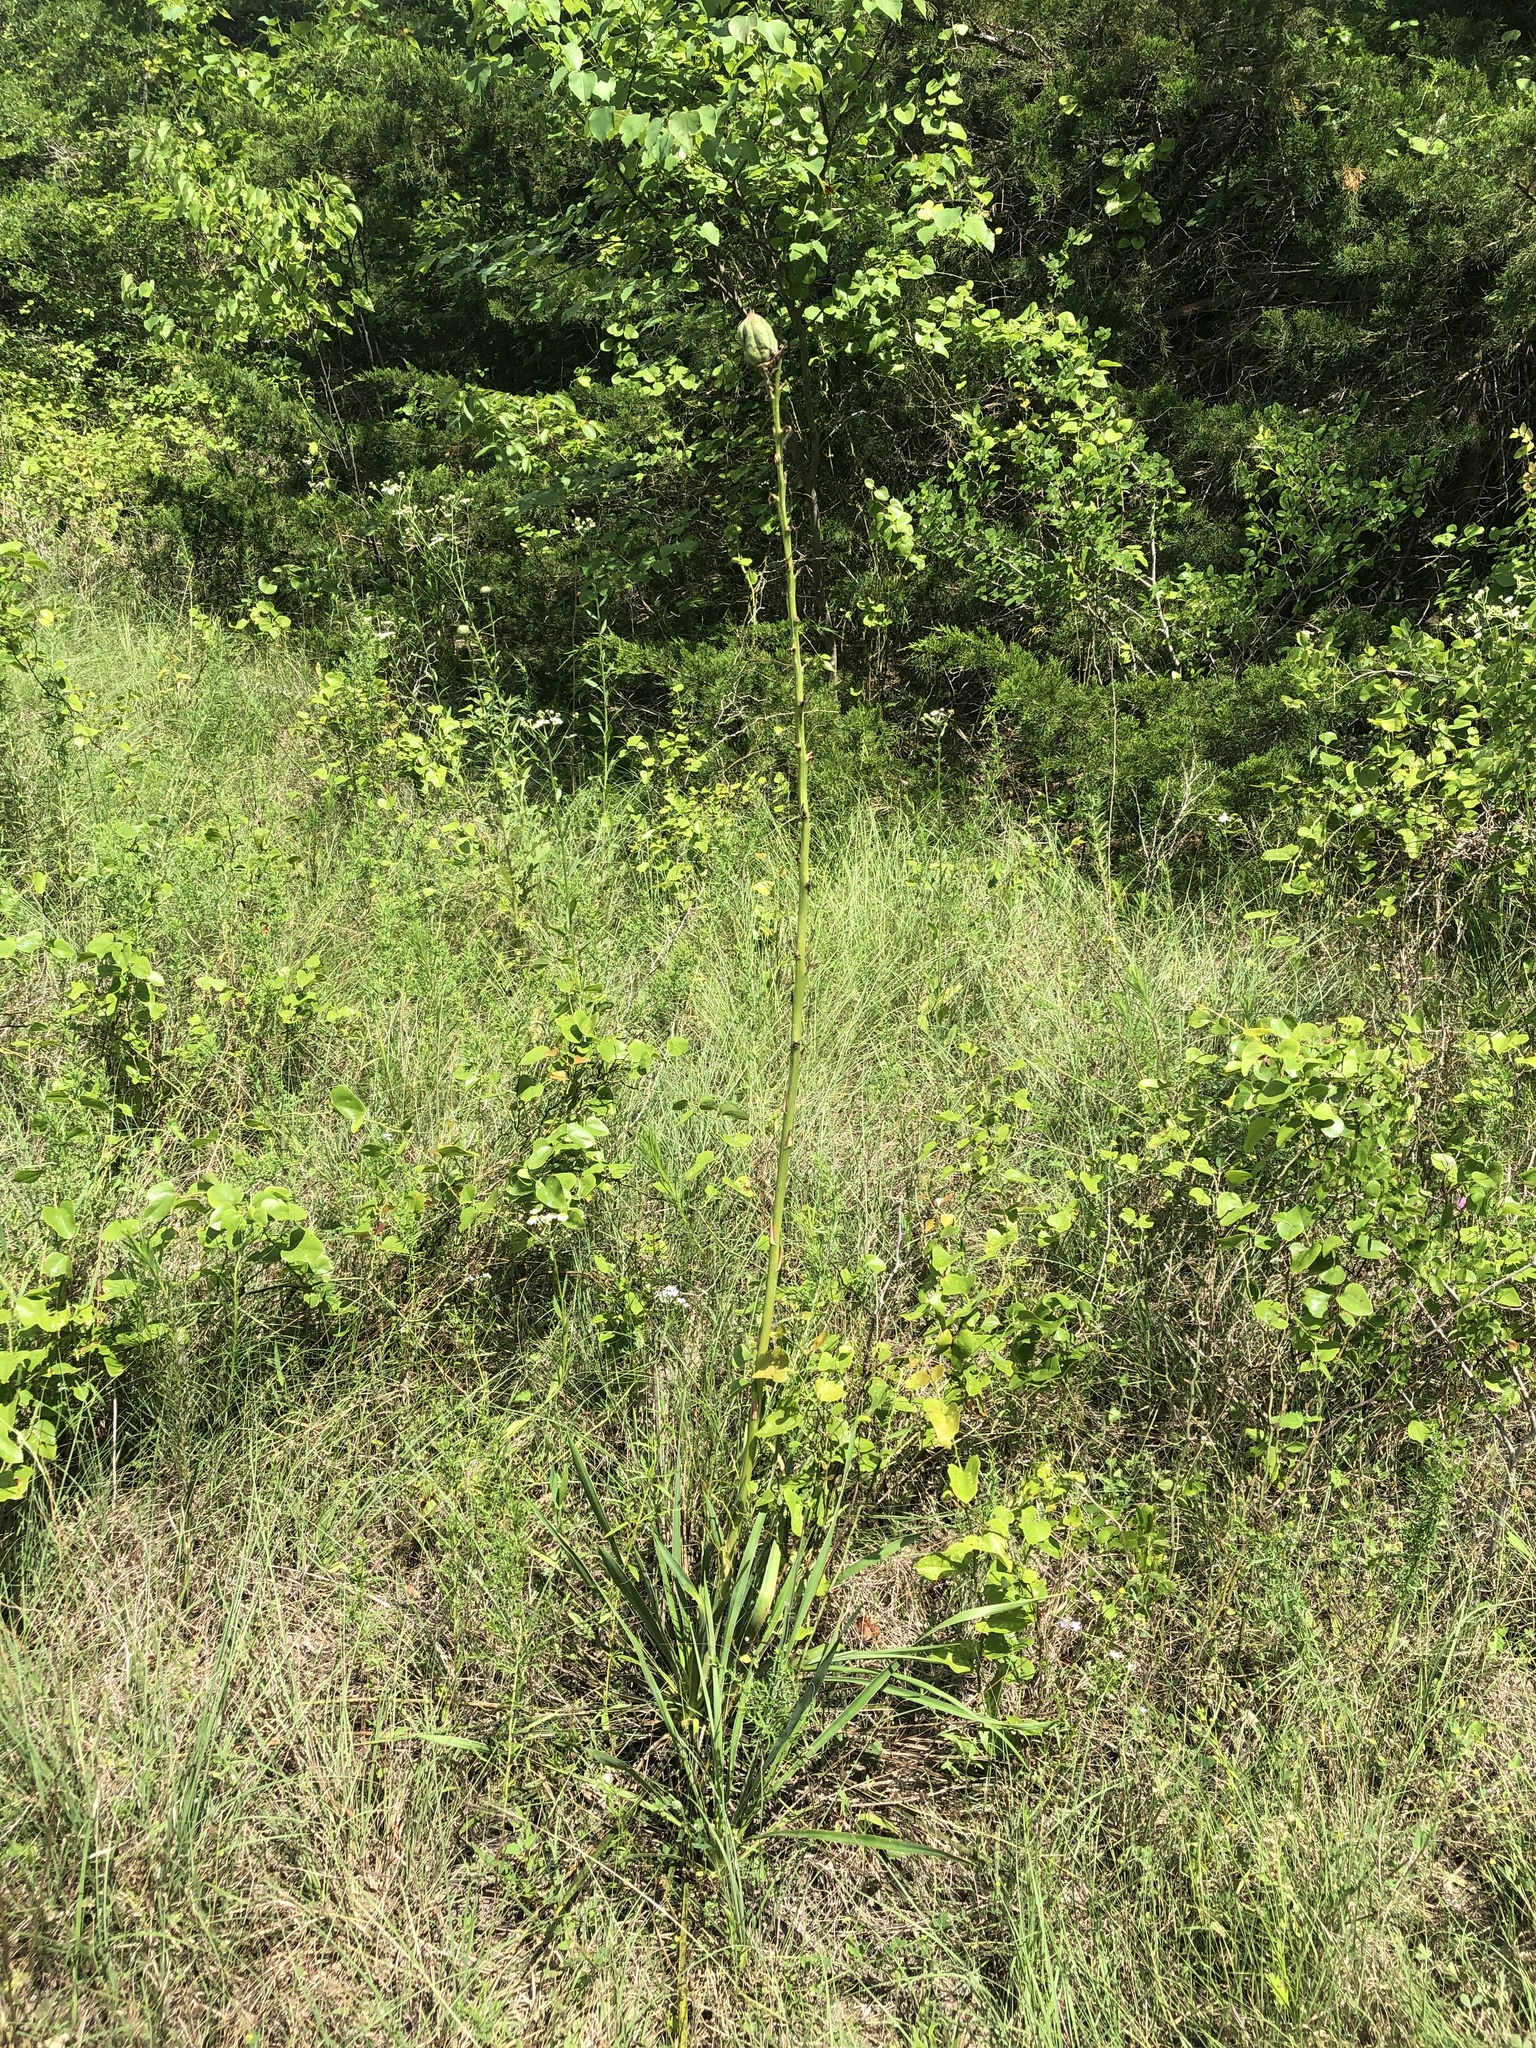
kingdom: Plantae
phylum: Tracheophyta
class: Liliopsida
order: Asparagales
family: Asparagaceae
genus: Yucca
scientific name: Yucca arkansana
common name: Arkansas yucca
